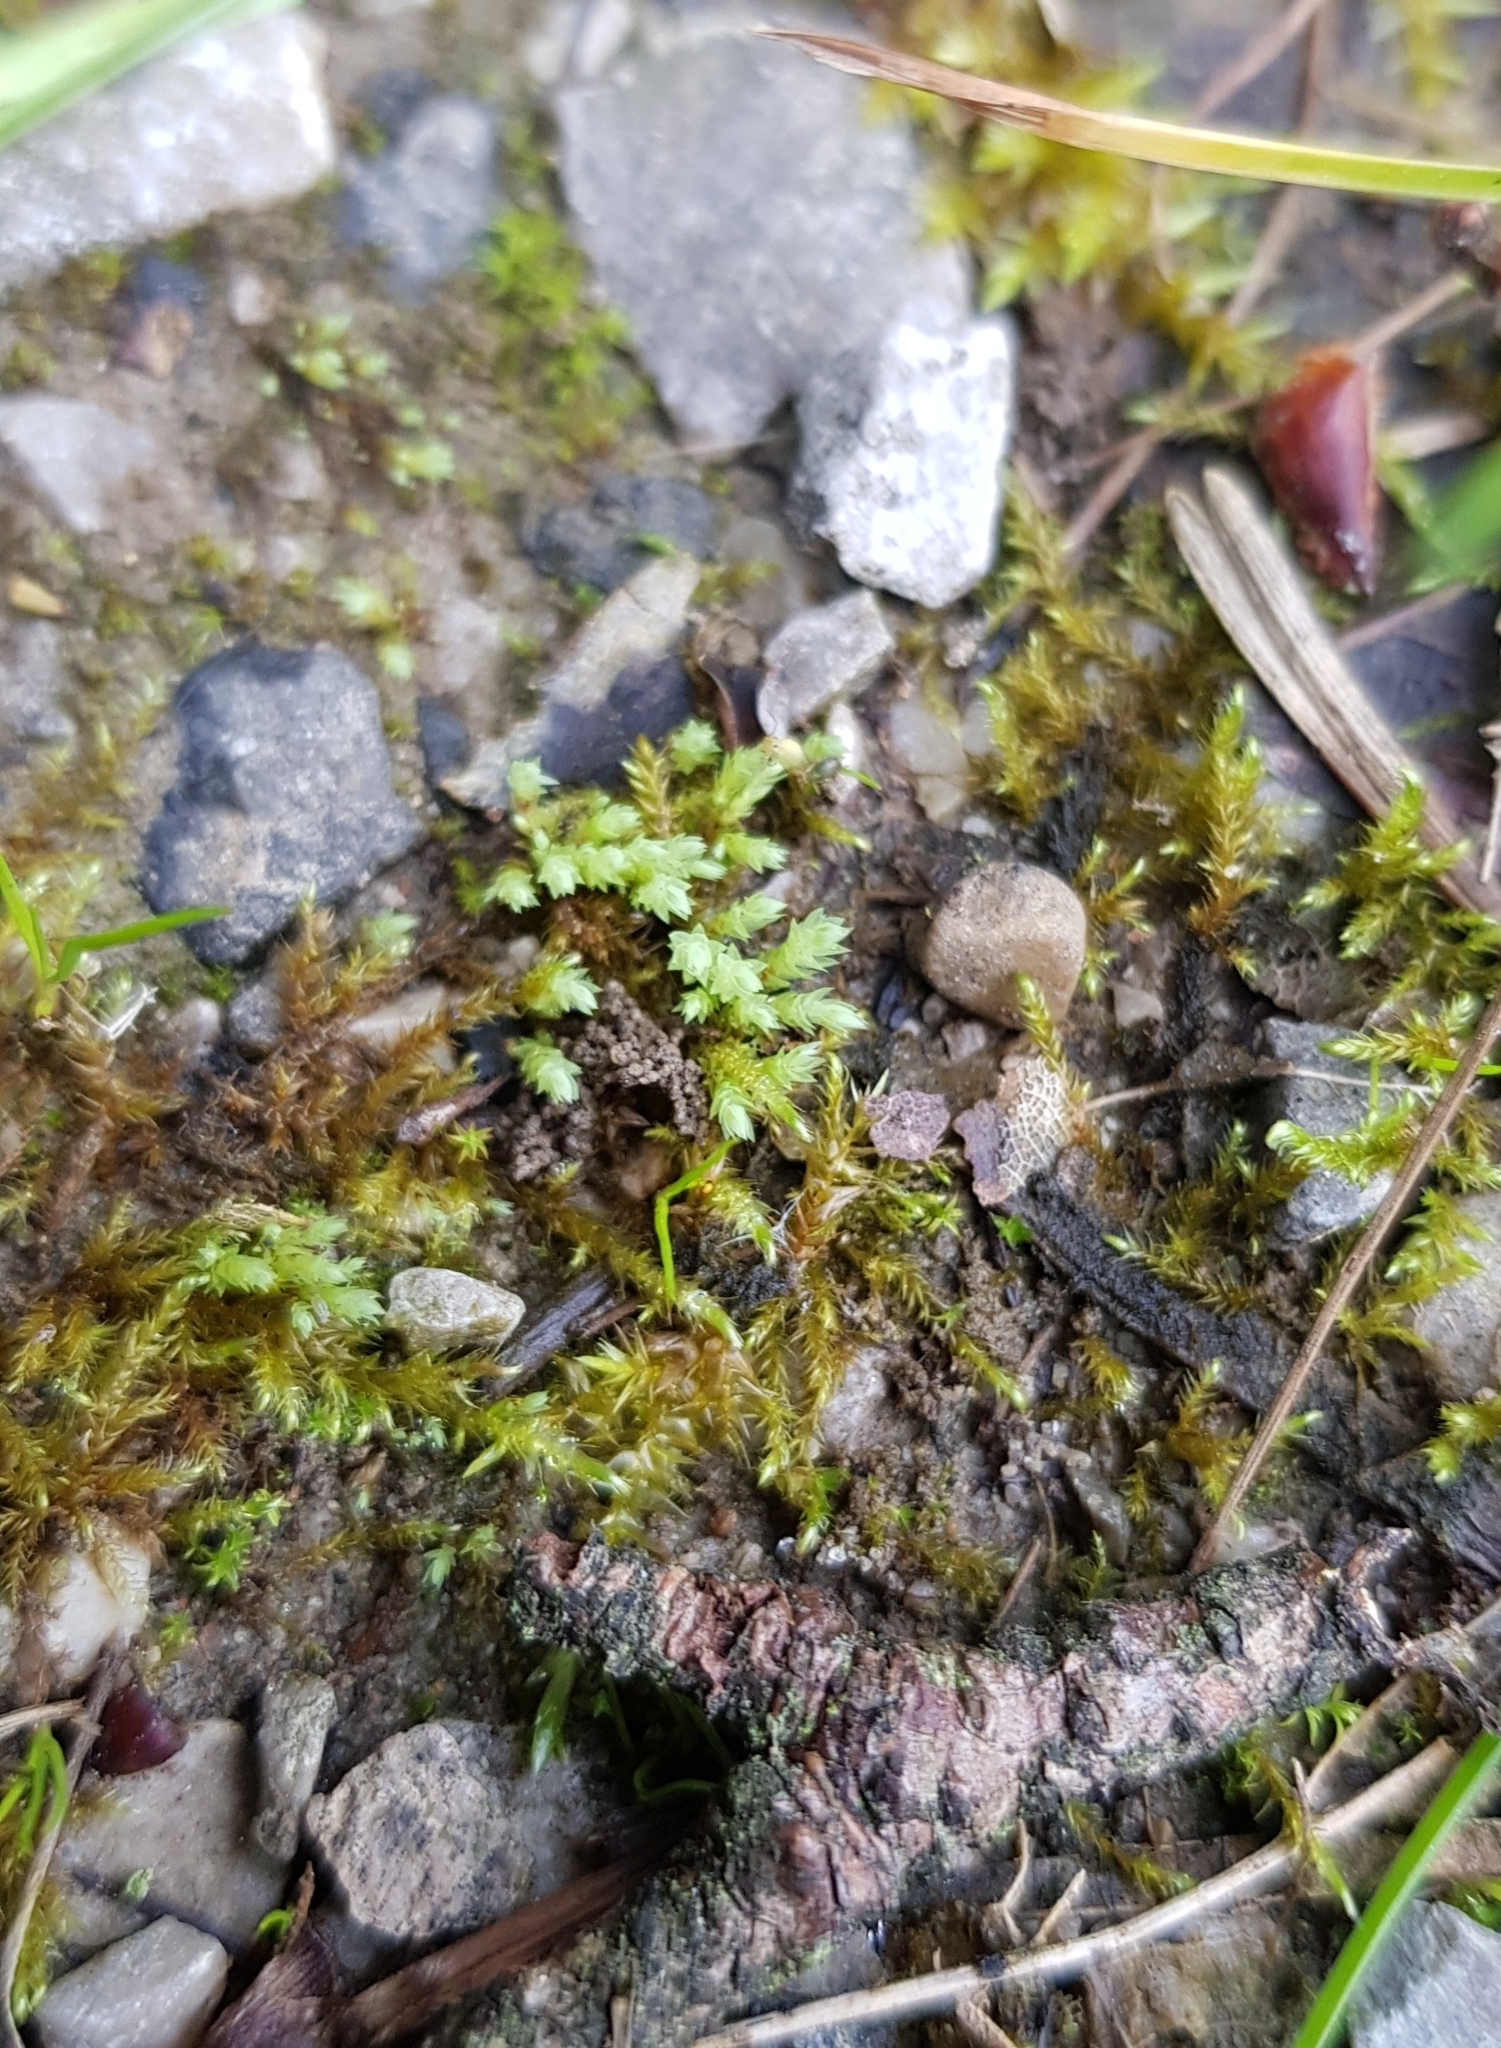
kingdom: Plantae
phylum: Bryophyta
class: Bryopsida
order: Bryales
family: Mniaceae
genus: Pohlia
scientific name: Pohlia wahlenbergii
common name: Wahlenberg's nodding moss
